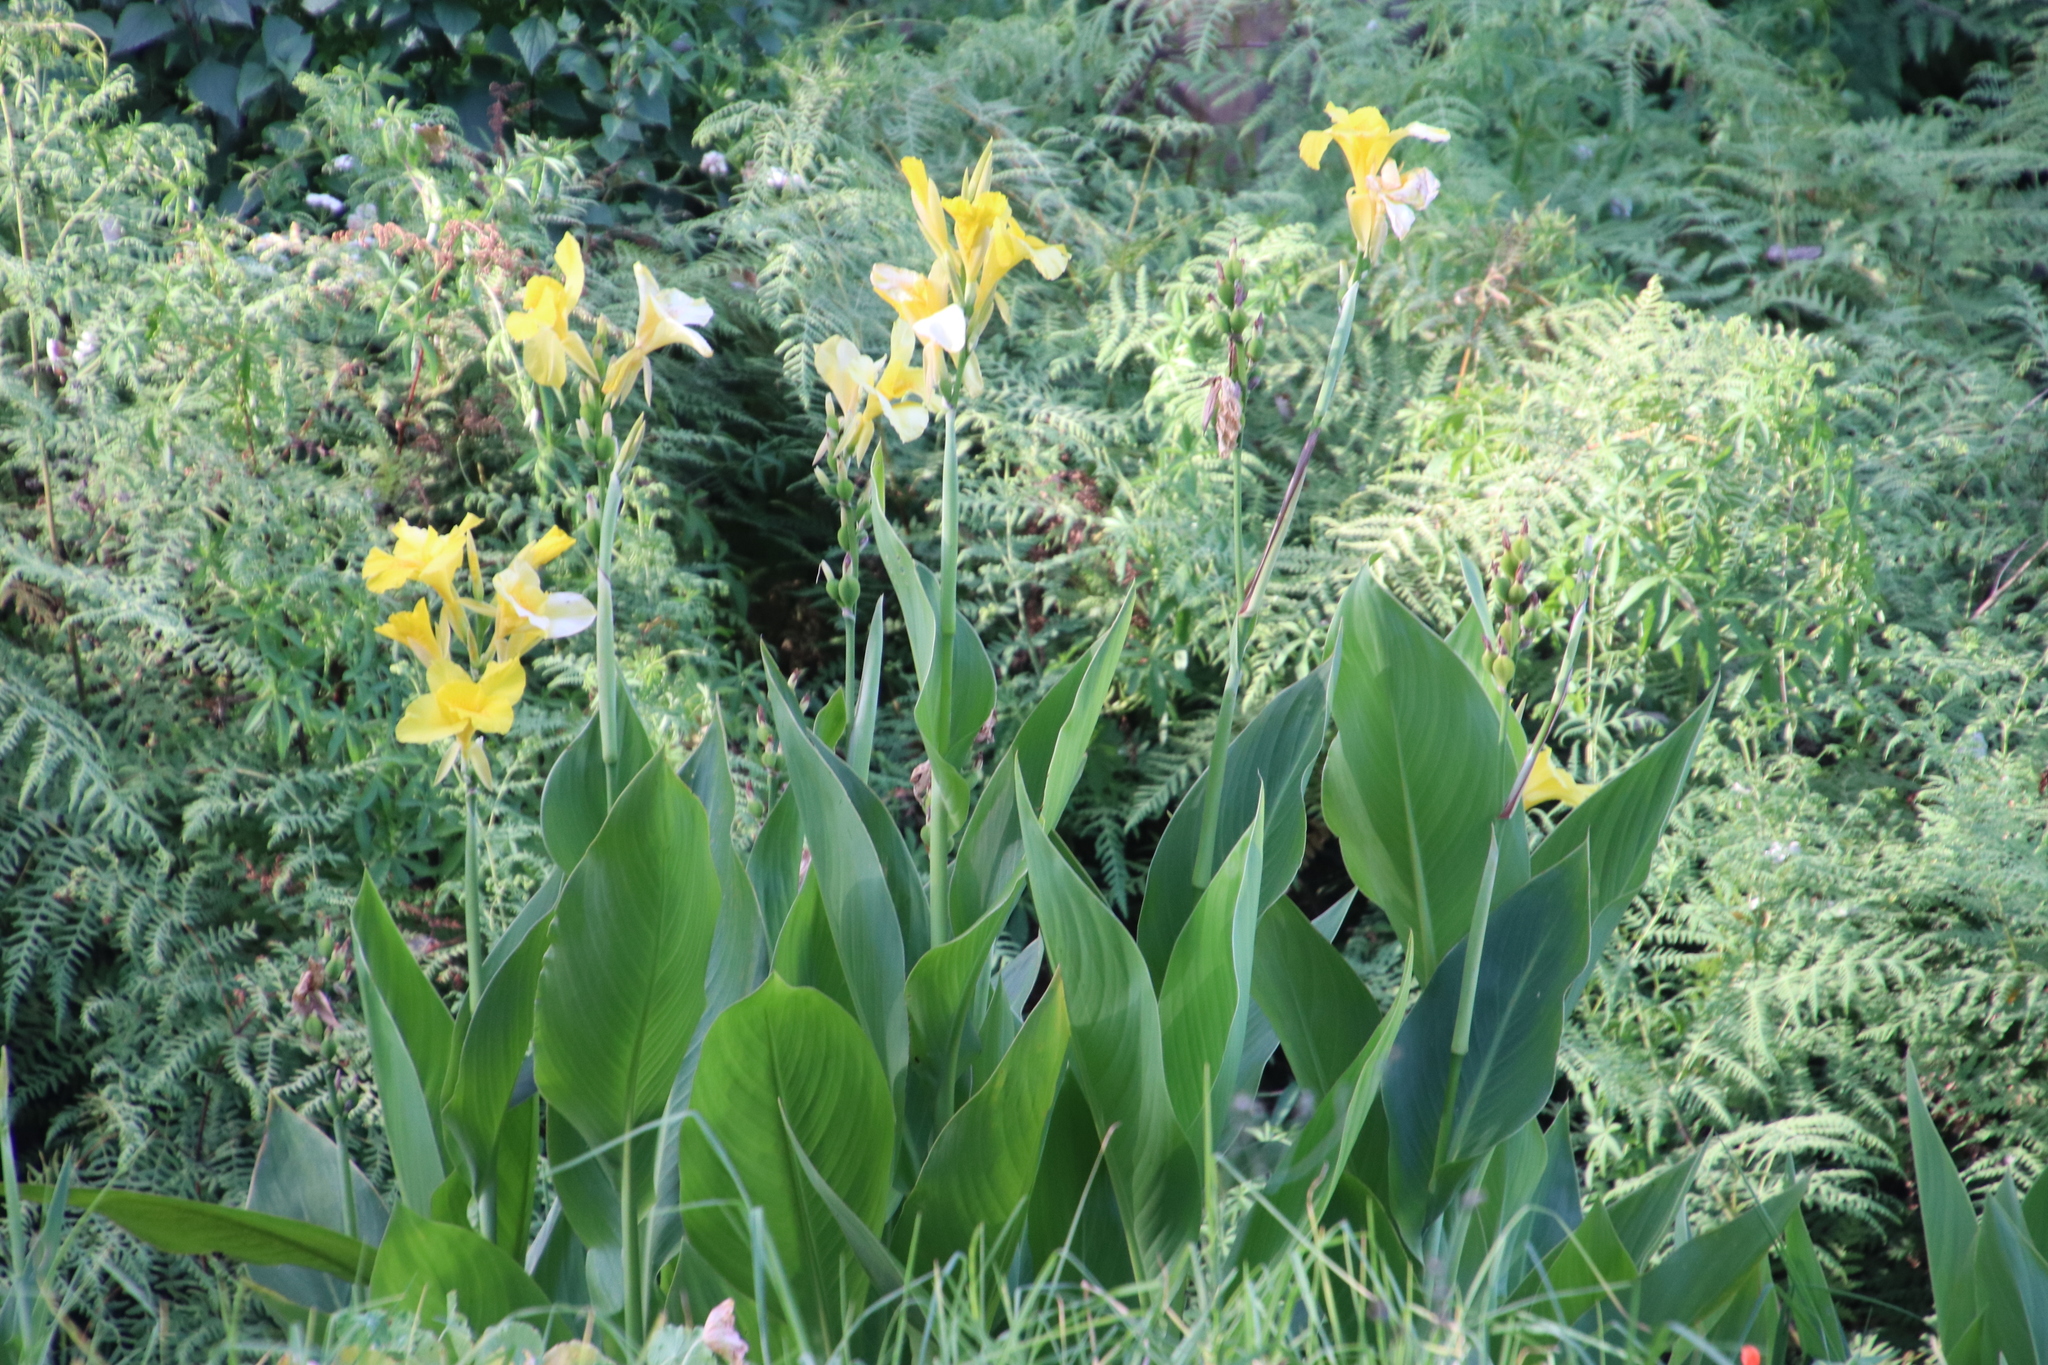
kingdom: Plantae
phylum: Tracheophyta
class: Liliopsida
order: Zingiberales
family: Cannaceae
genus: Canna
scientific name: Canna hybrida
